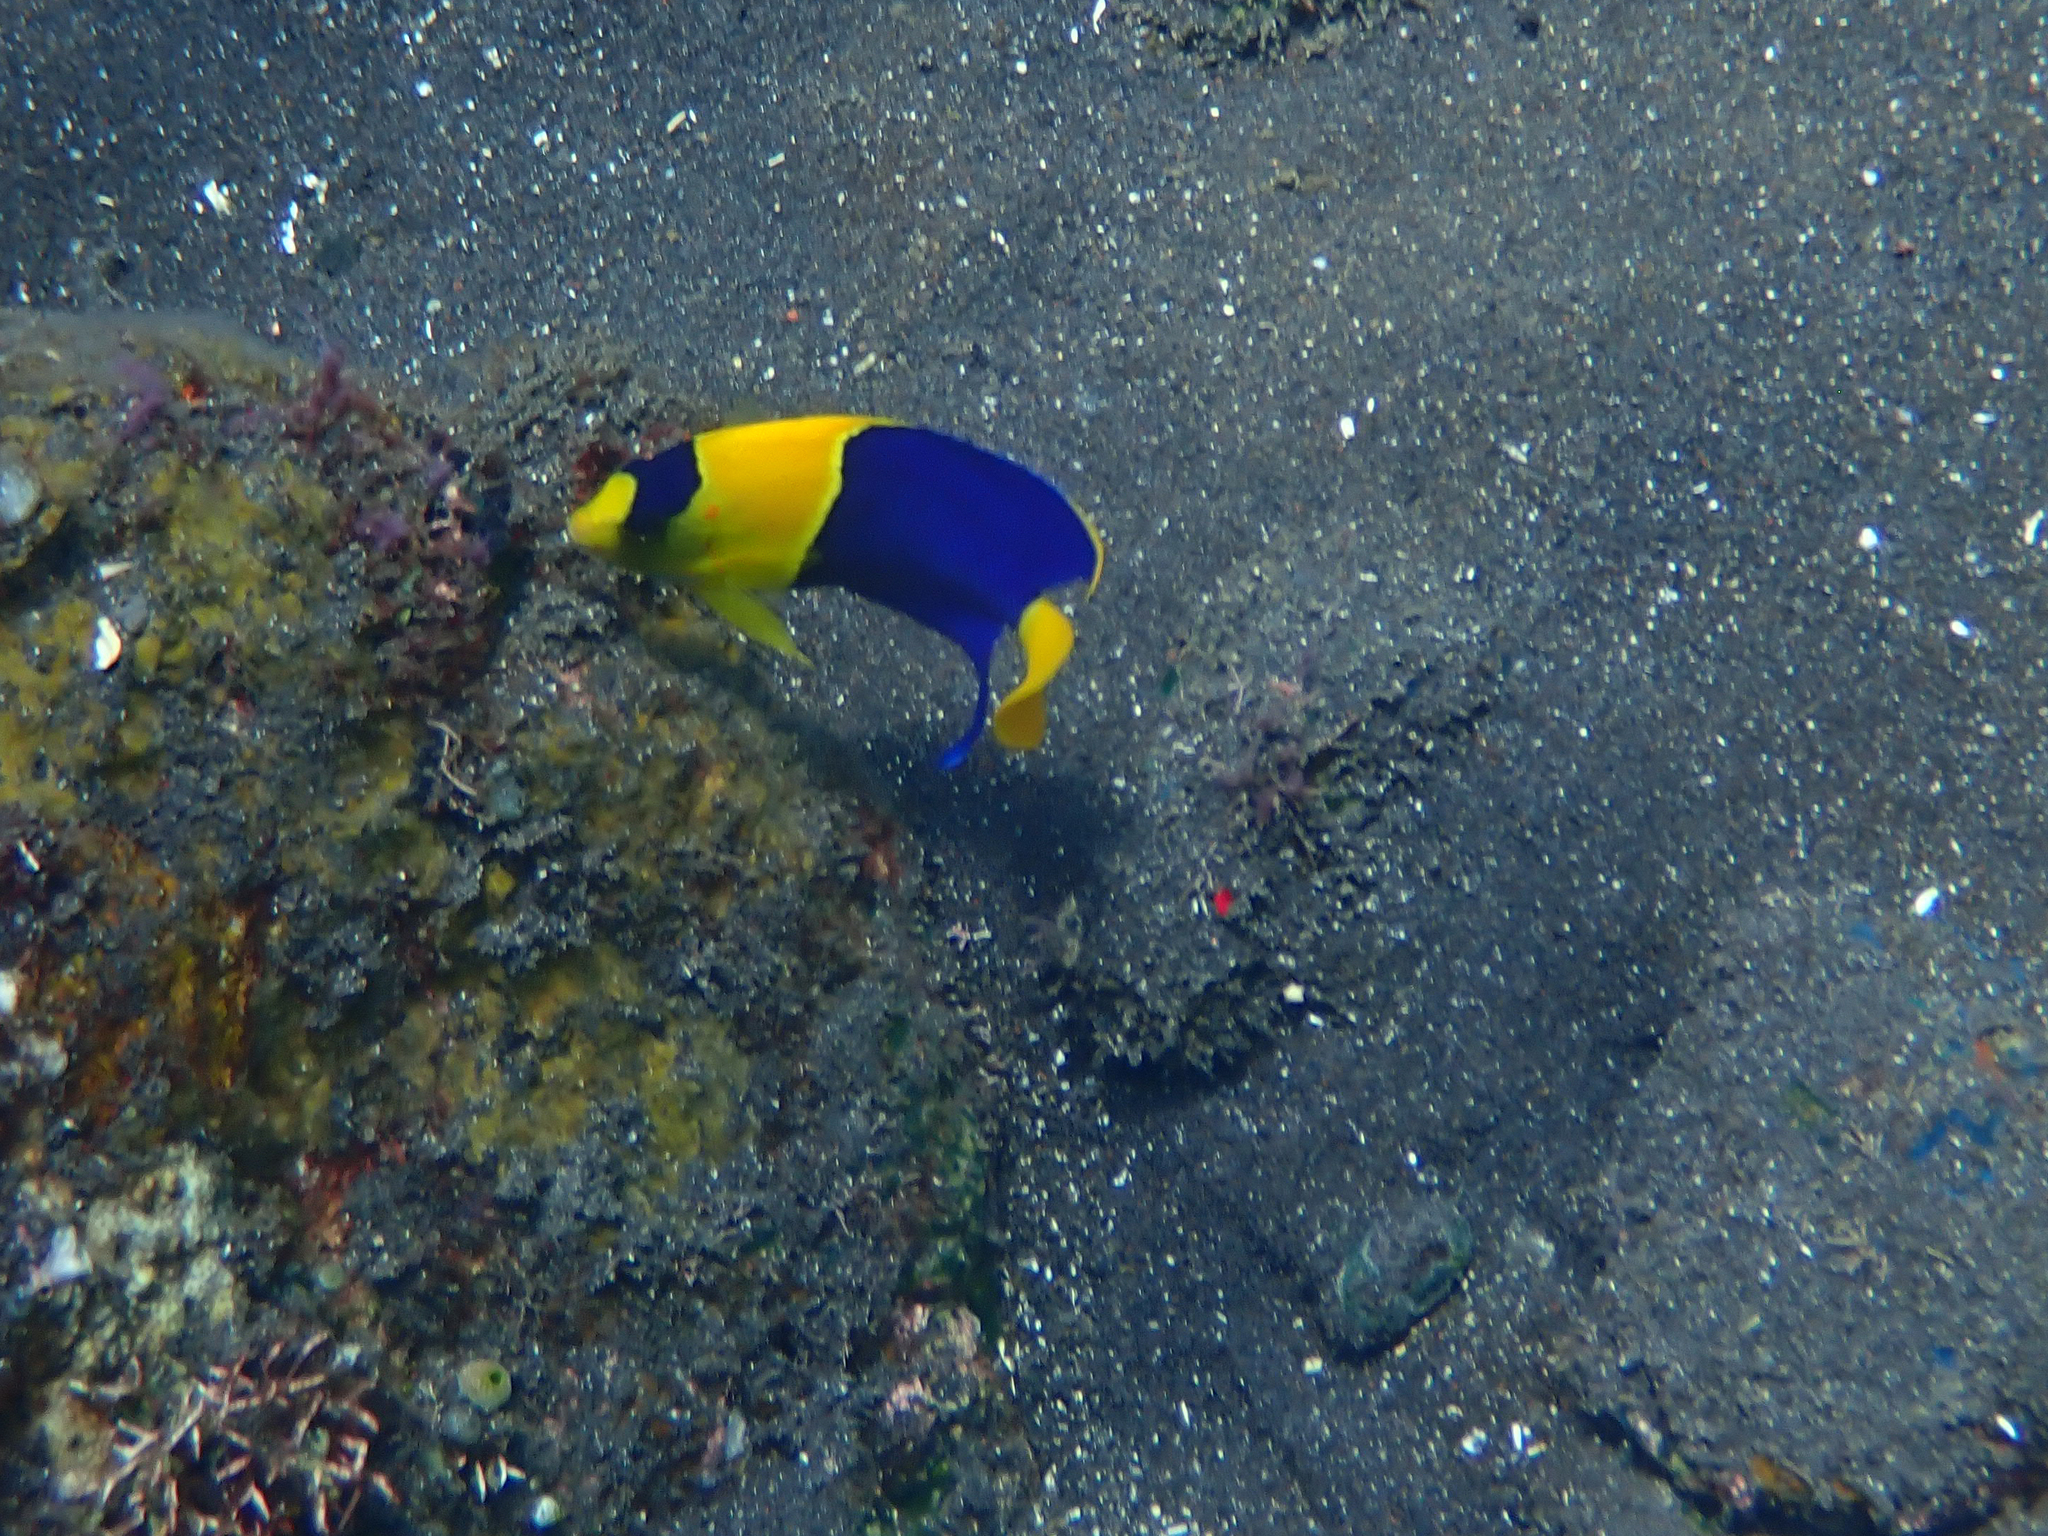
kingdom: Animalia
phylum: Chordata
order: Perciformes
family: Pomacanthidae
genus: Centropyge
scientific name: Centropyge bicolor
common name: Bicolor angelfish
